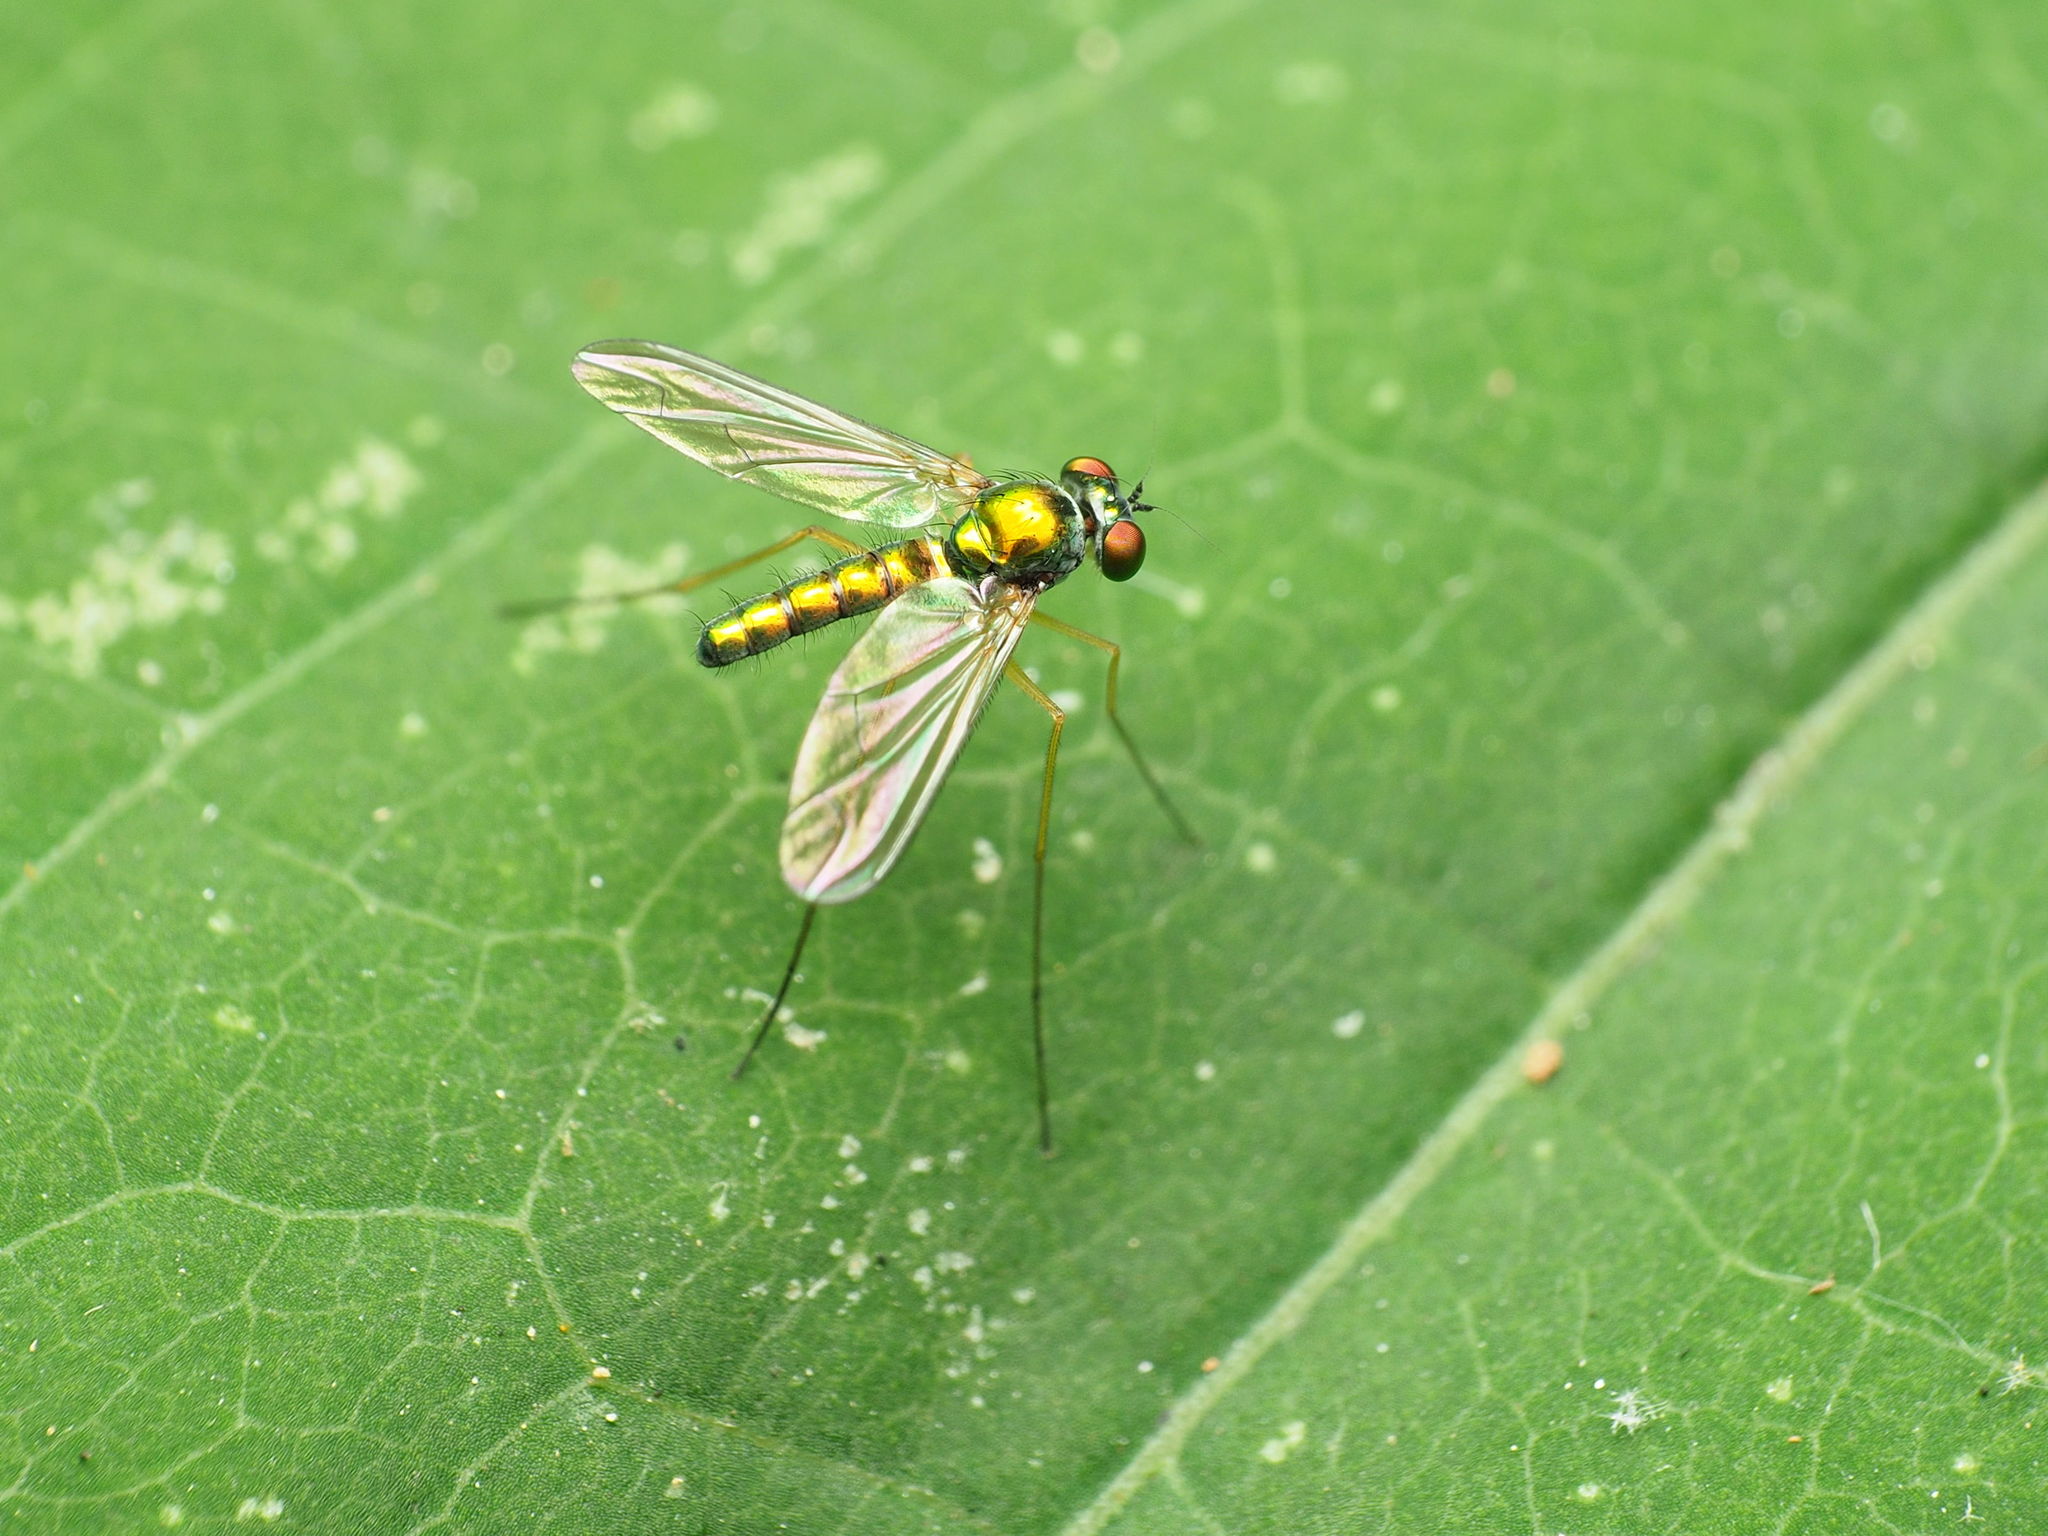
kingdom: Animalia
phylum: Arthropoda
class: Insecta
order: Diptera
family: Dolichopodidae
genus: Amblypsilopus
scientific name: Amblypsilopus scintillans
